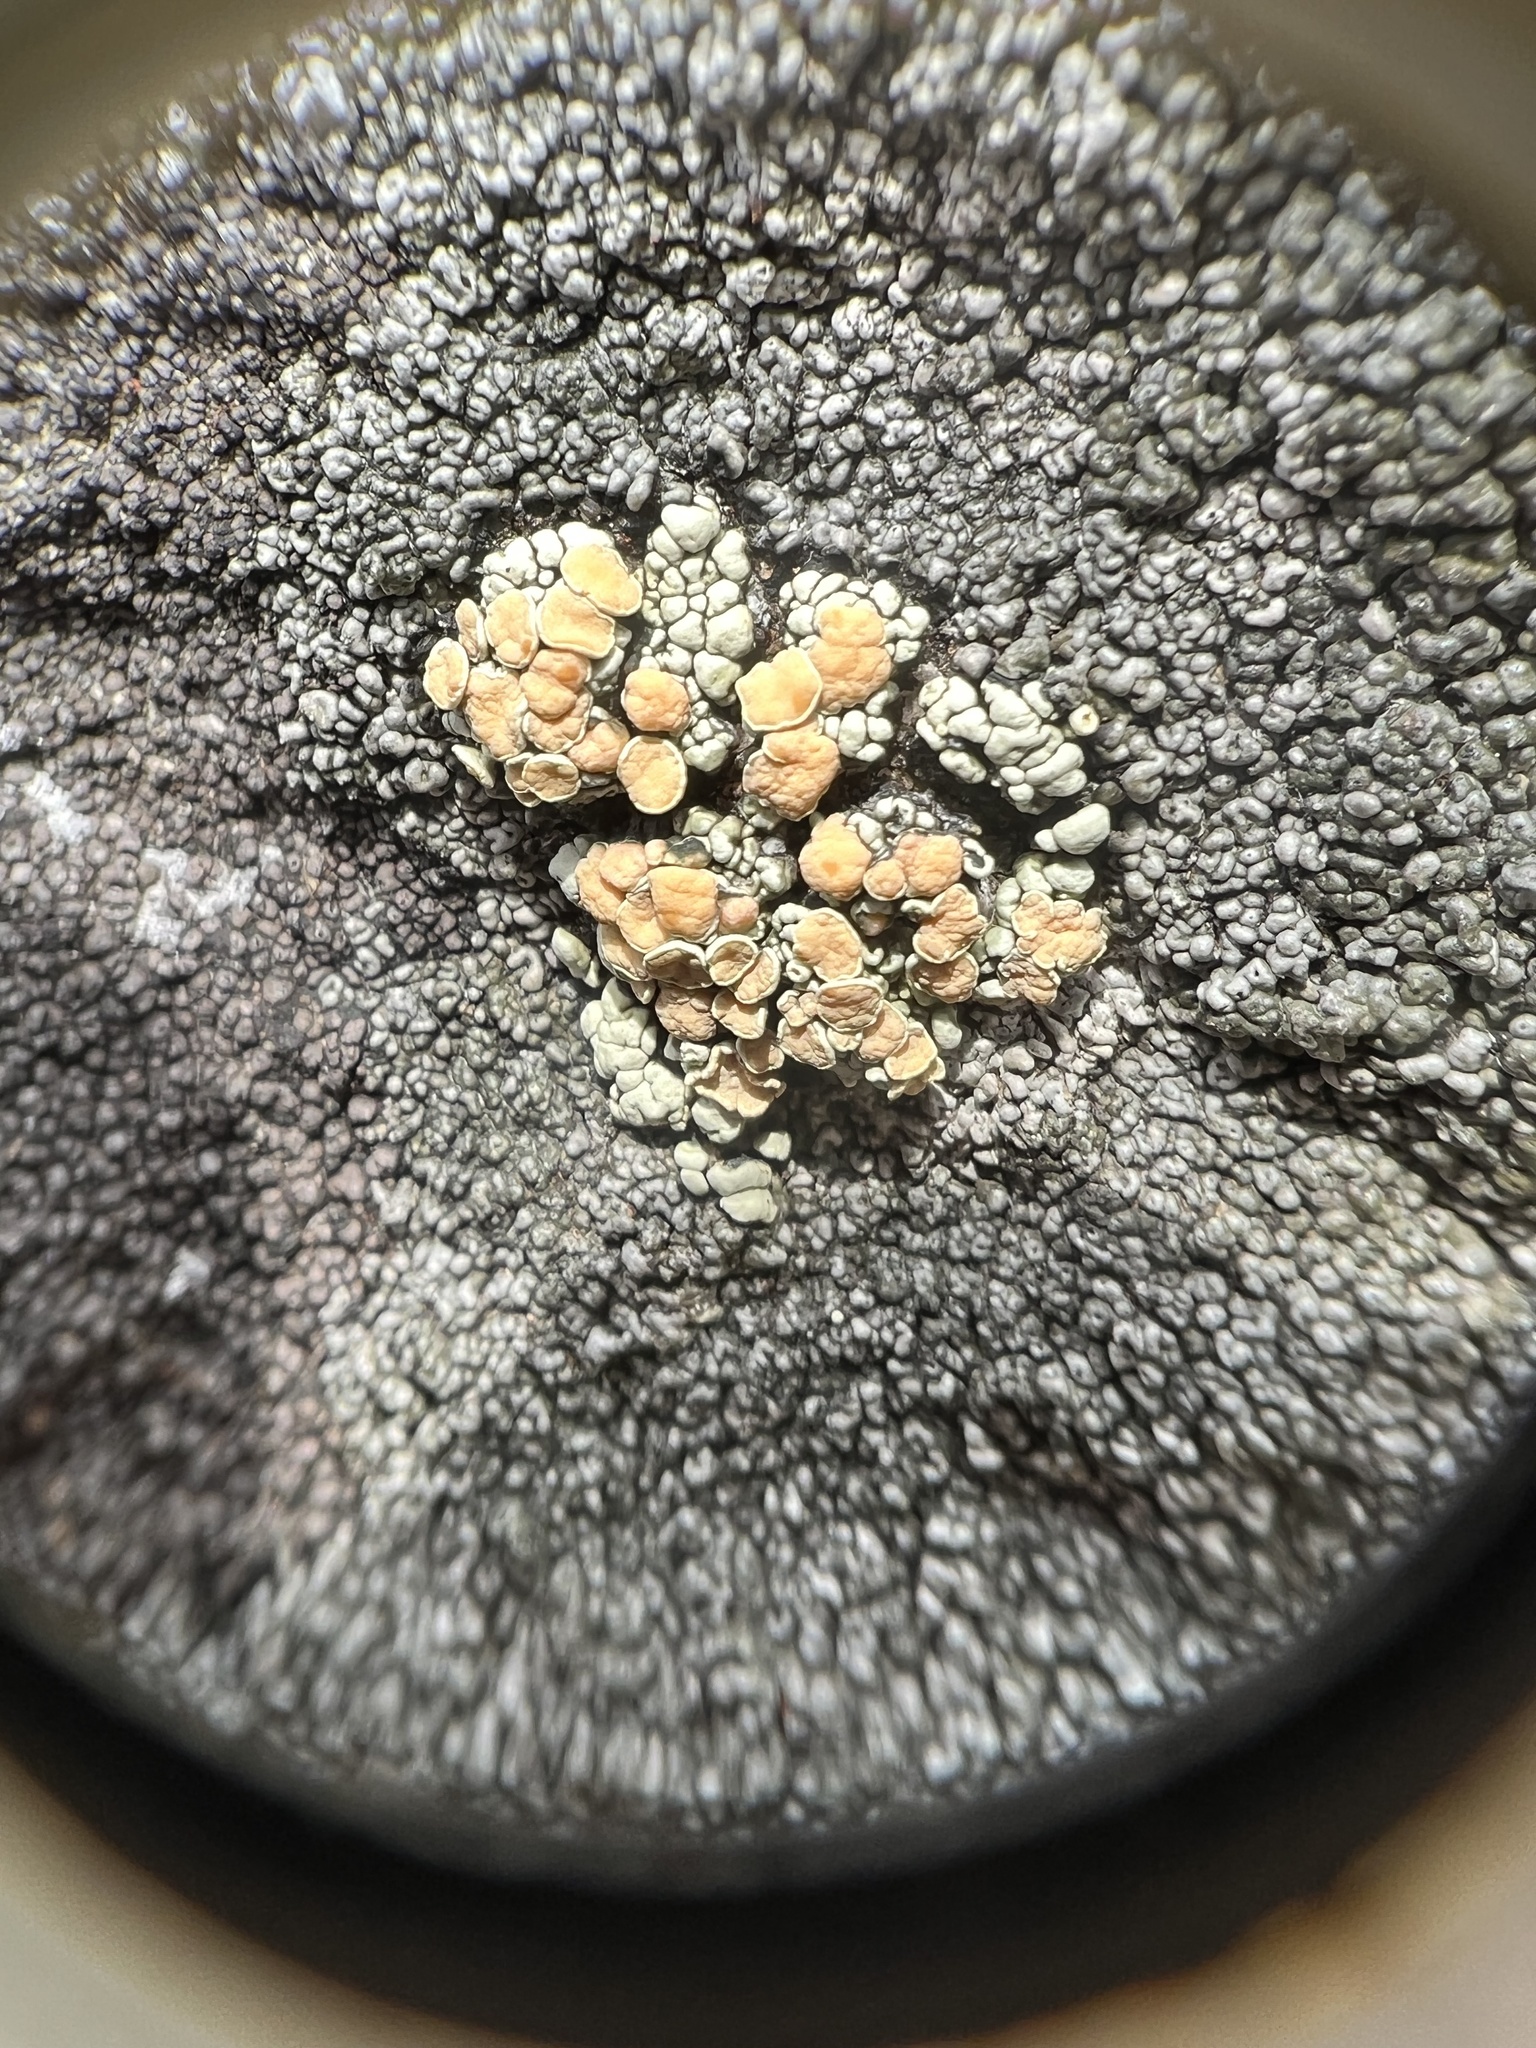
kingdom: Fungi
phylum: Ascomycota
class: Lecanoromycetes
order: Lecanorales
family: Lecanoraceae
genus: Sedelnikovaea
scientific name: Sedelnikovaea subdiscrepans
